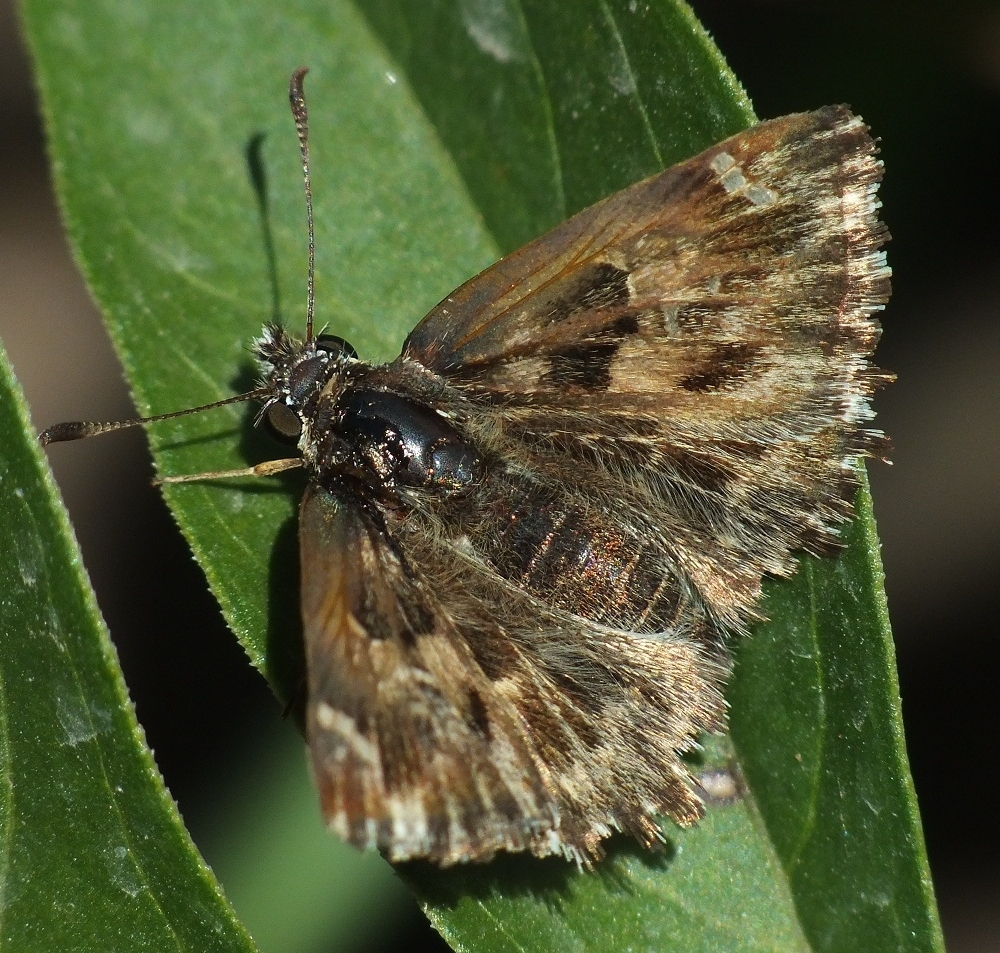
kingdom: Animalia
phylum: Arthropoda
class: Insecta
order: Lepidoptera
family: Hesperiidae
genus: Carcharodus
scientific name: Carcharodus alceae
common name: Mallow skipper
